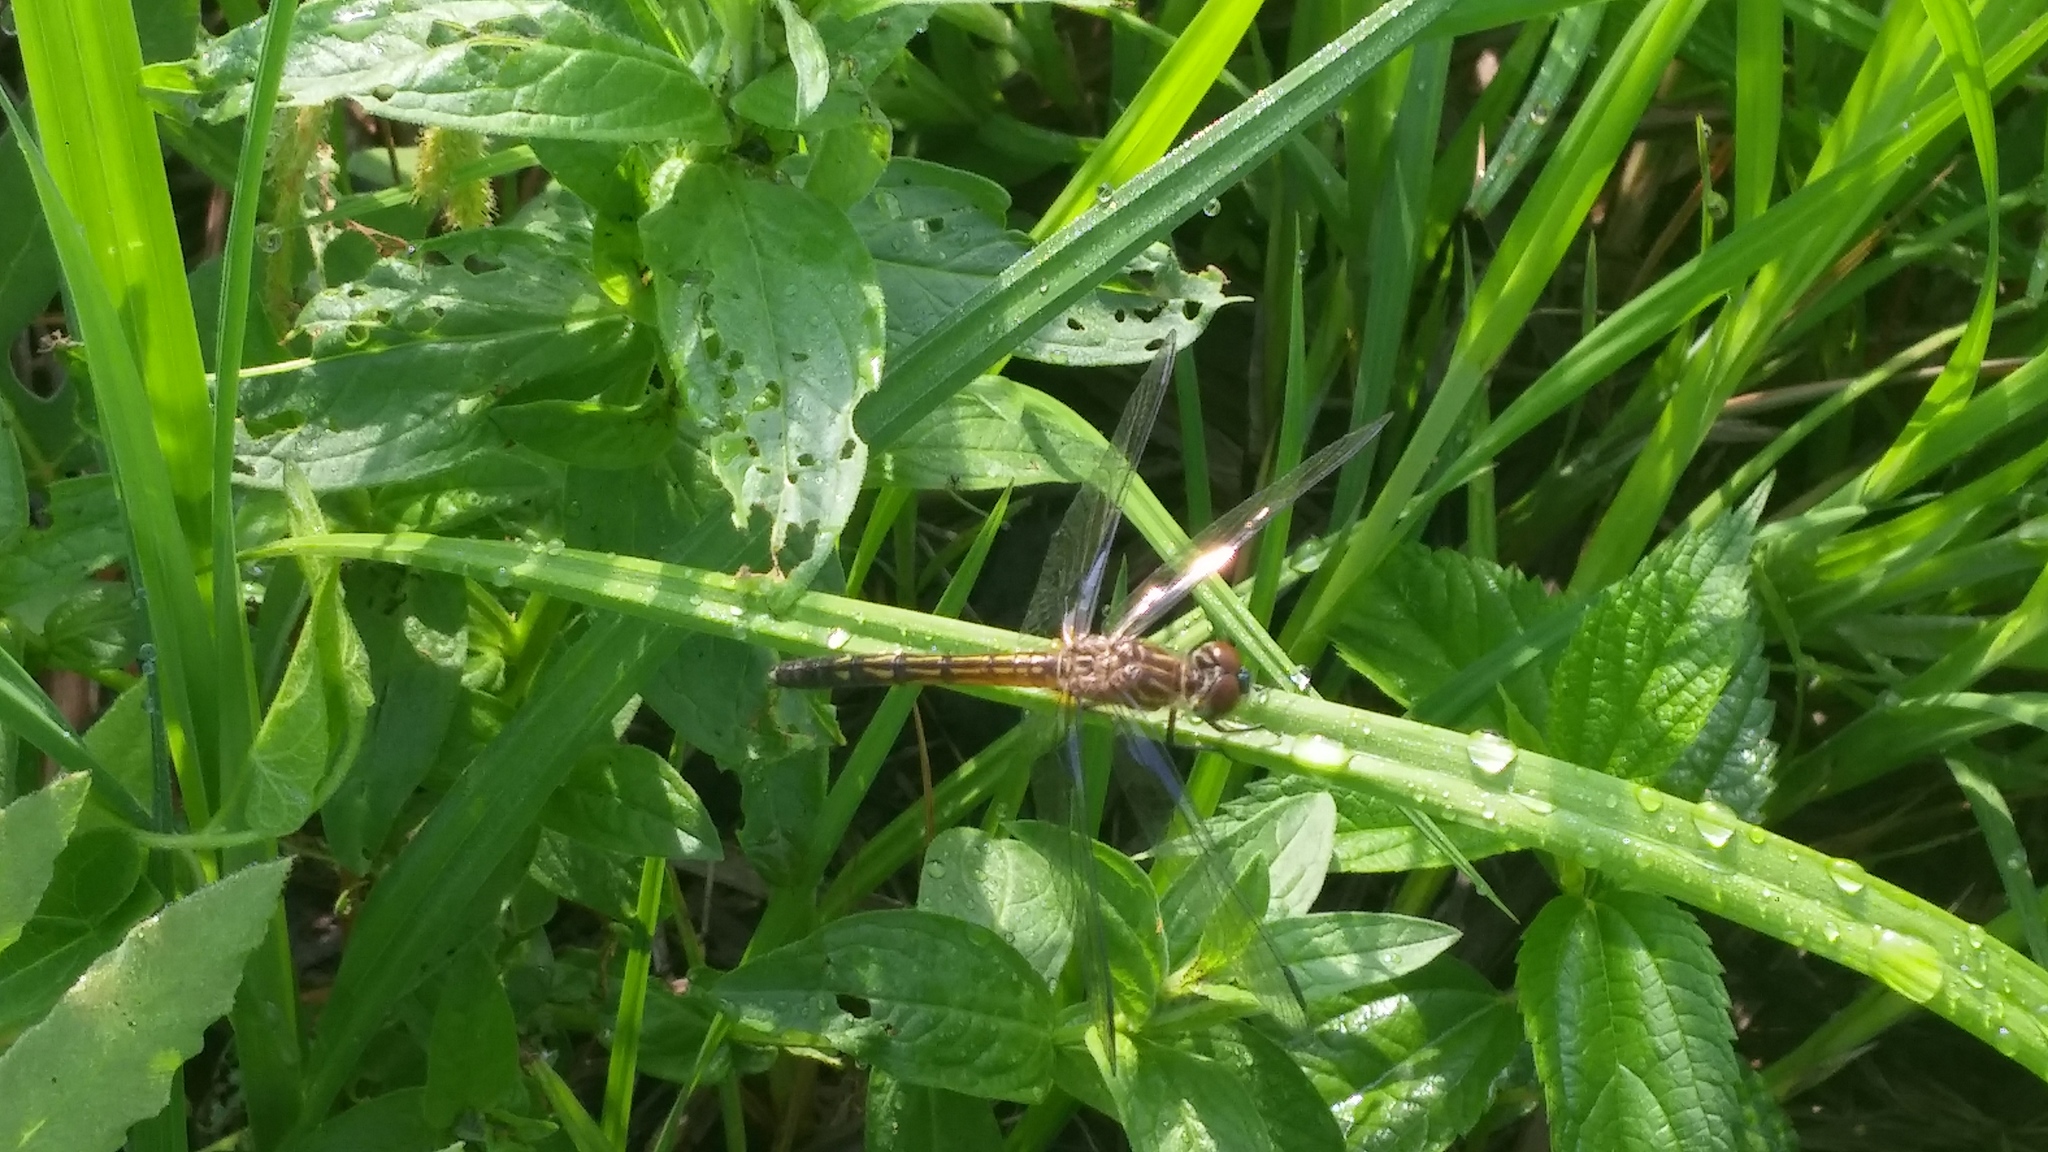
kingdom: Animalia
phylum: Arthropoda
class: Insecta
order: Odonata
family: Libellulidae
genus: Pachydiplax
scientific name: Pachydiplax longipennis
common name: Blue dasher
